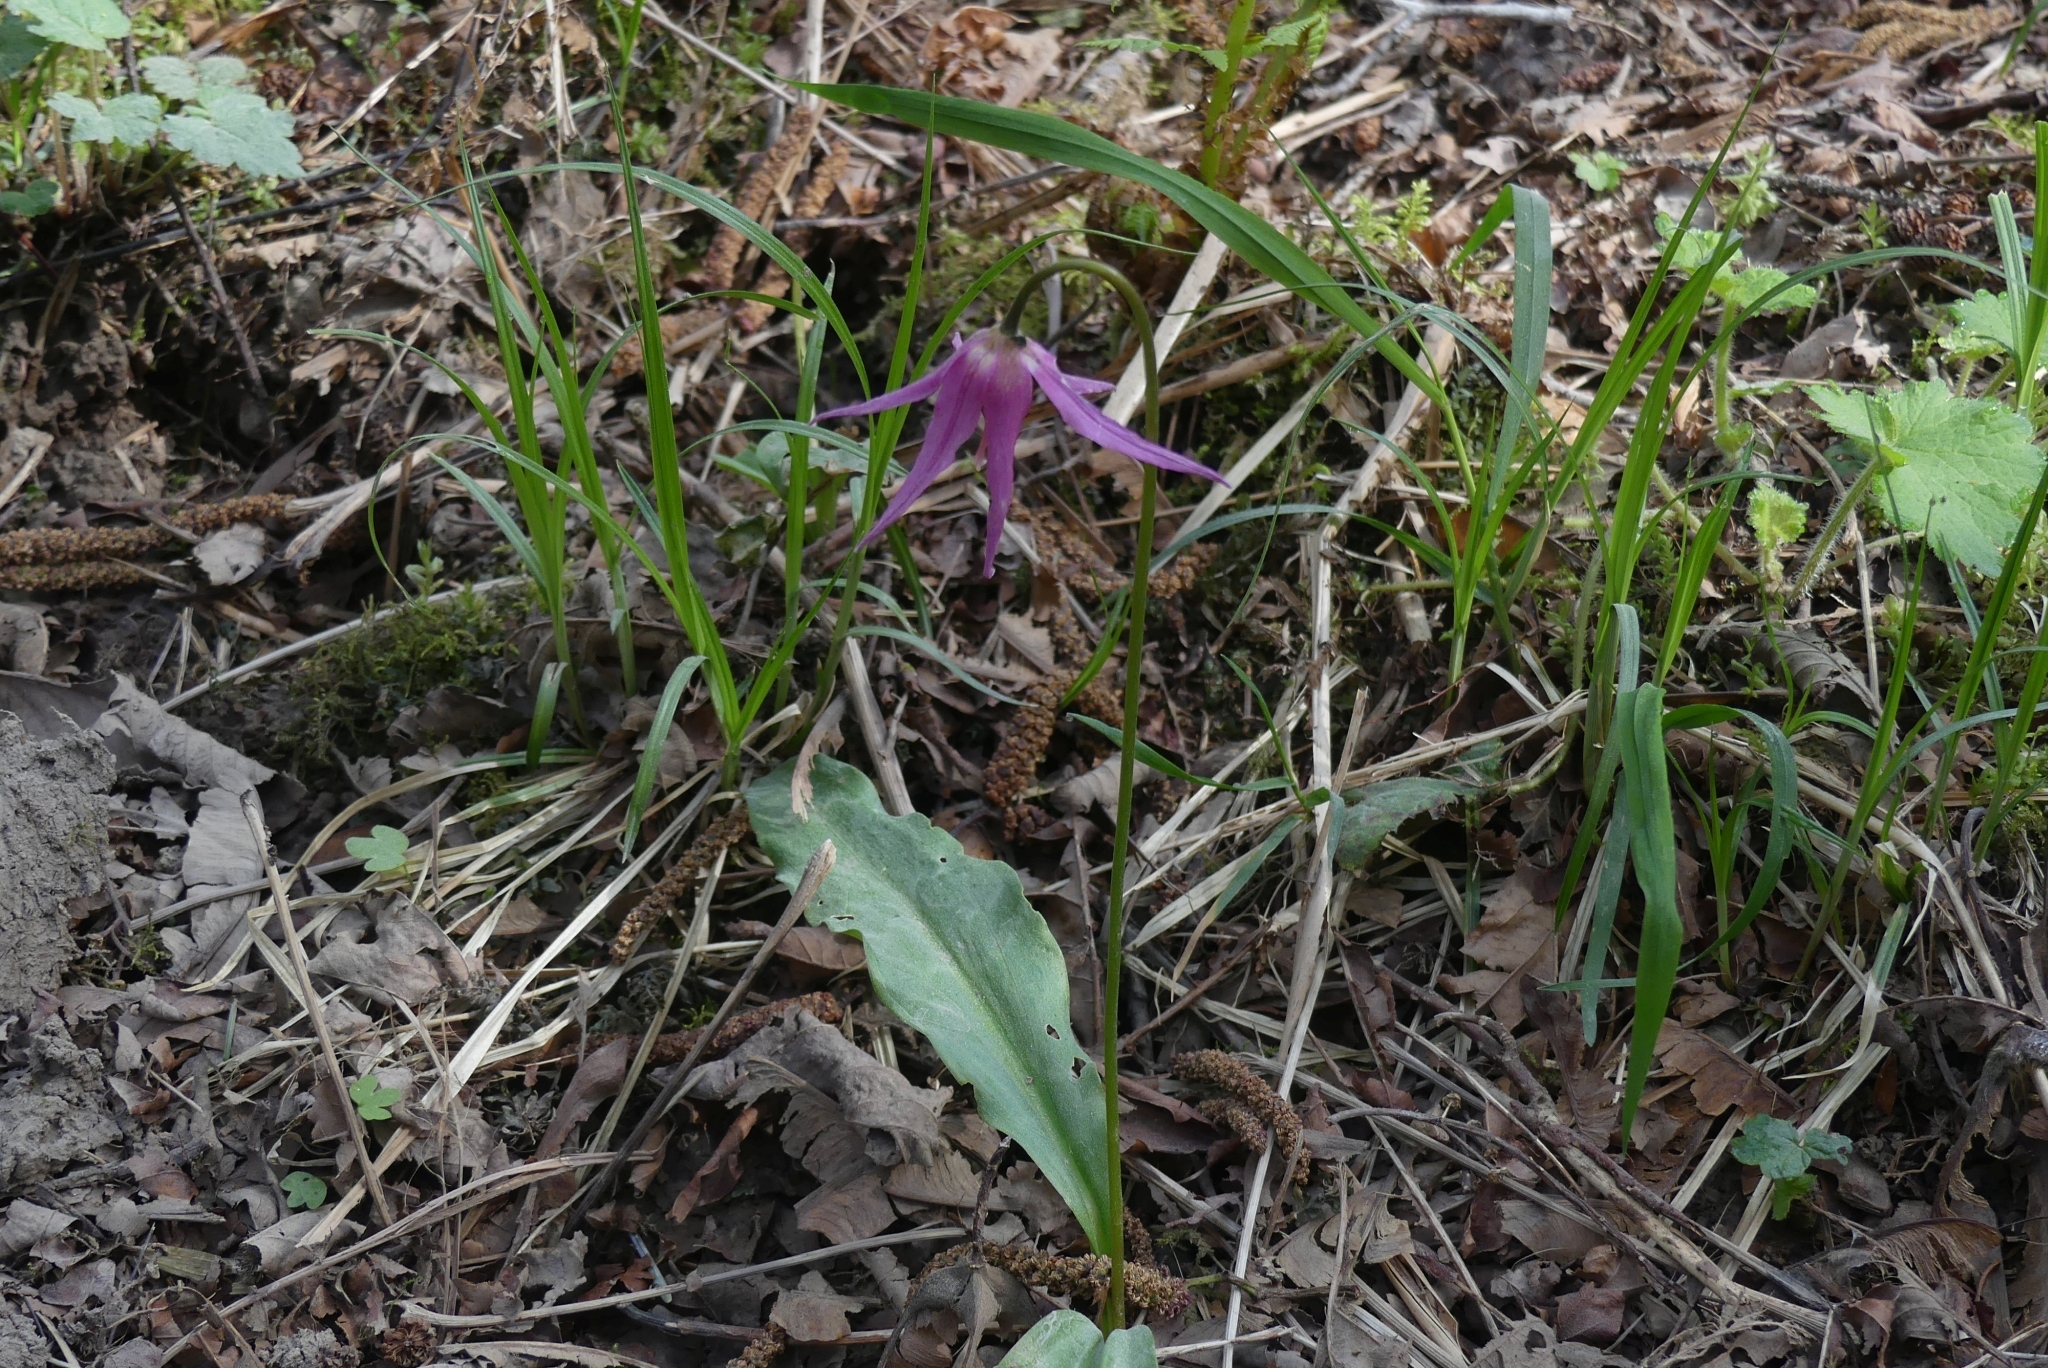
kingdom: Plantae
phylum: Tracheophyta
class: Liliopsida
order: Liliales
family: Liliaceae
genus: Erythronium
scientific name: Erythronium revolutum
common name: Pink fawn-lily
